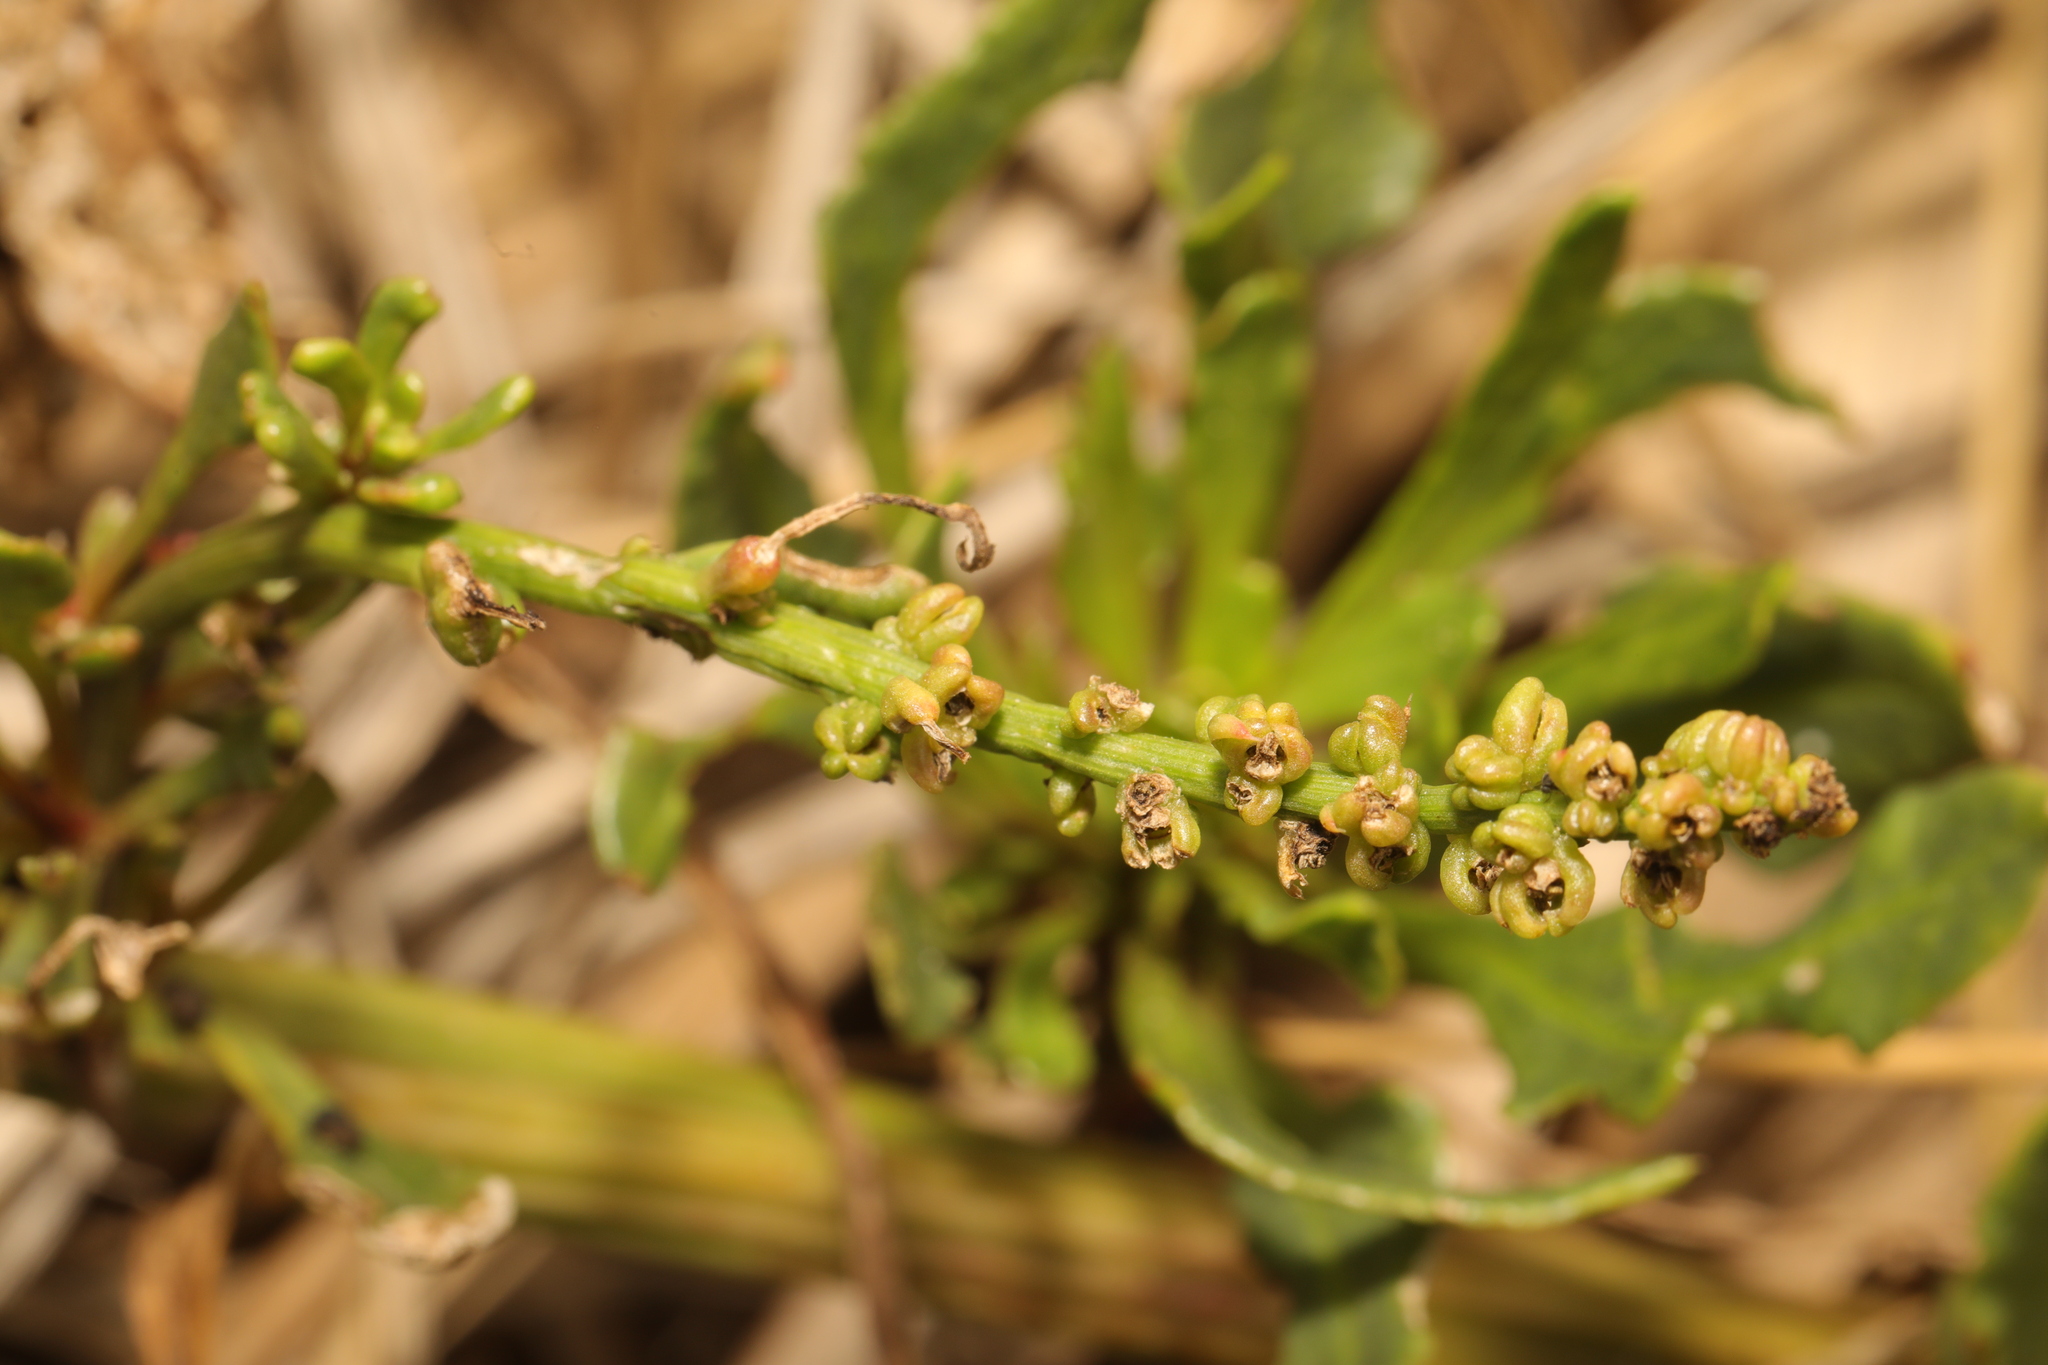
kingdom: Plantae
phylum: Tracheophyta
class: Magnoliopsida
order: Caryophyllales
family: Amaranthaceae
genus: Beta
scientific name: Beta vulgaris
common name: Beet
